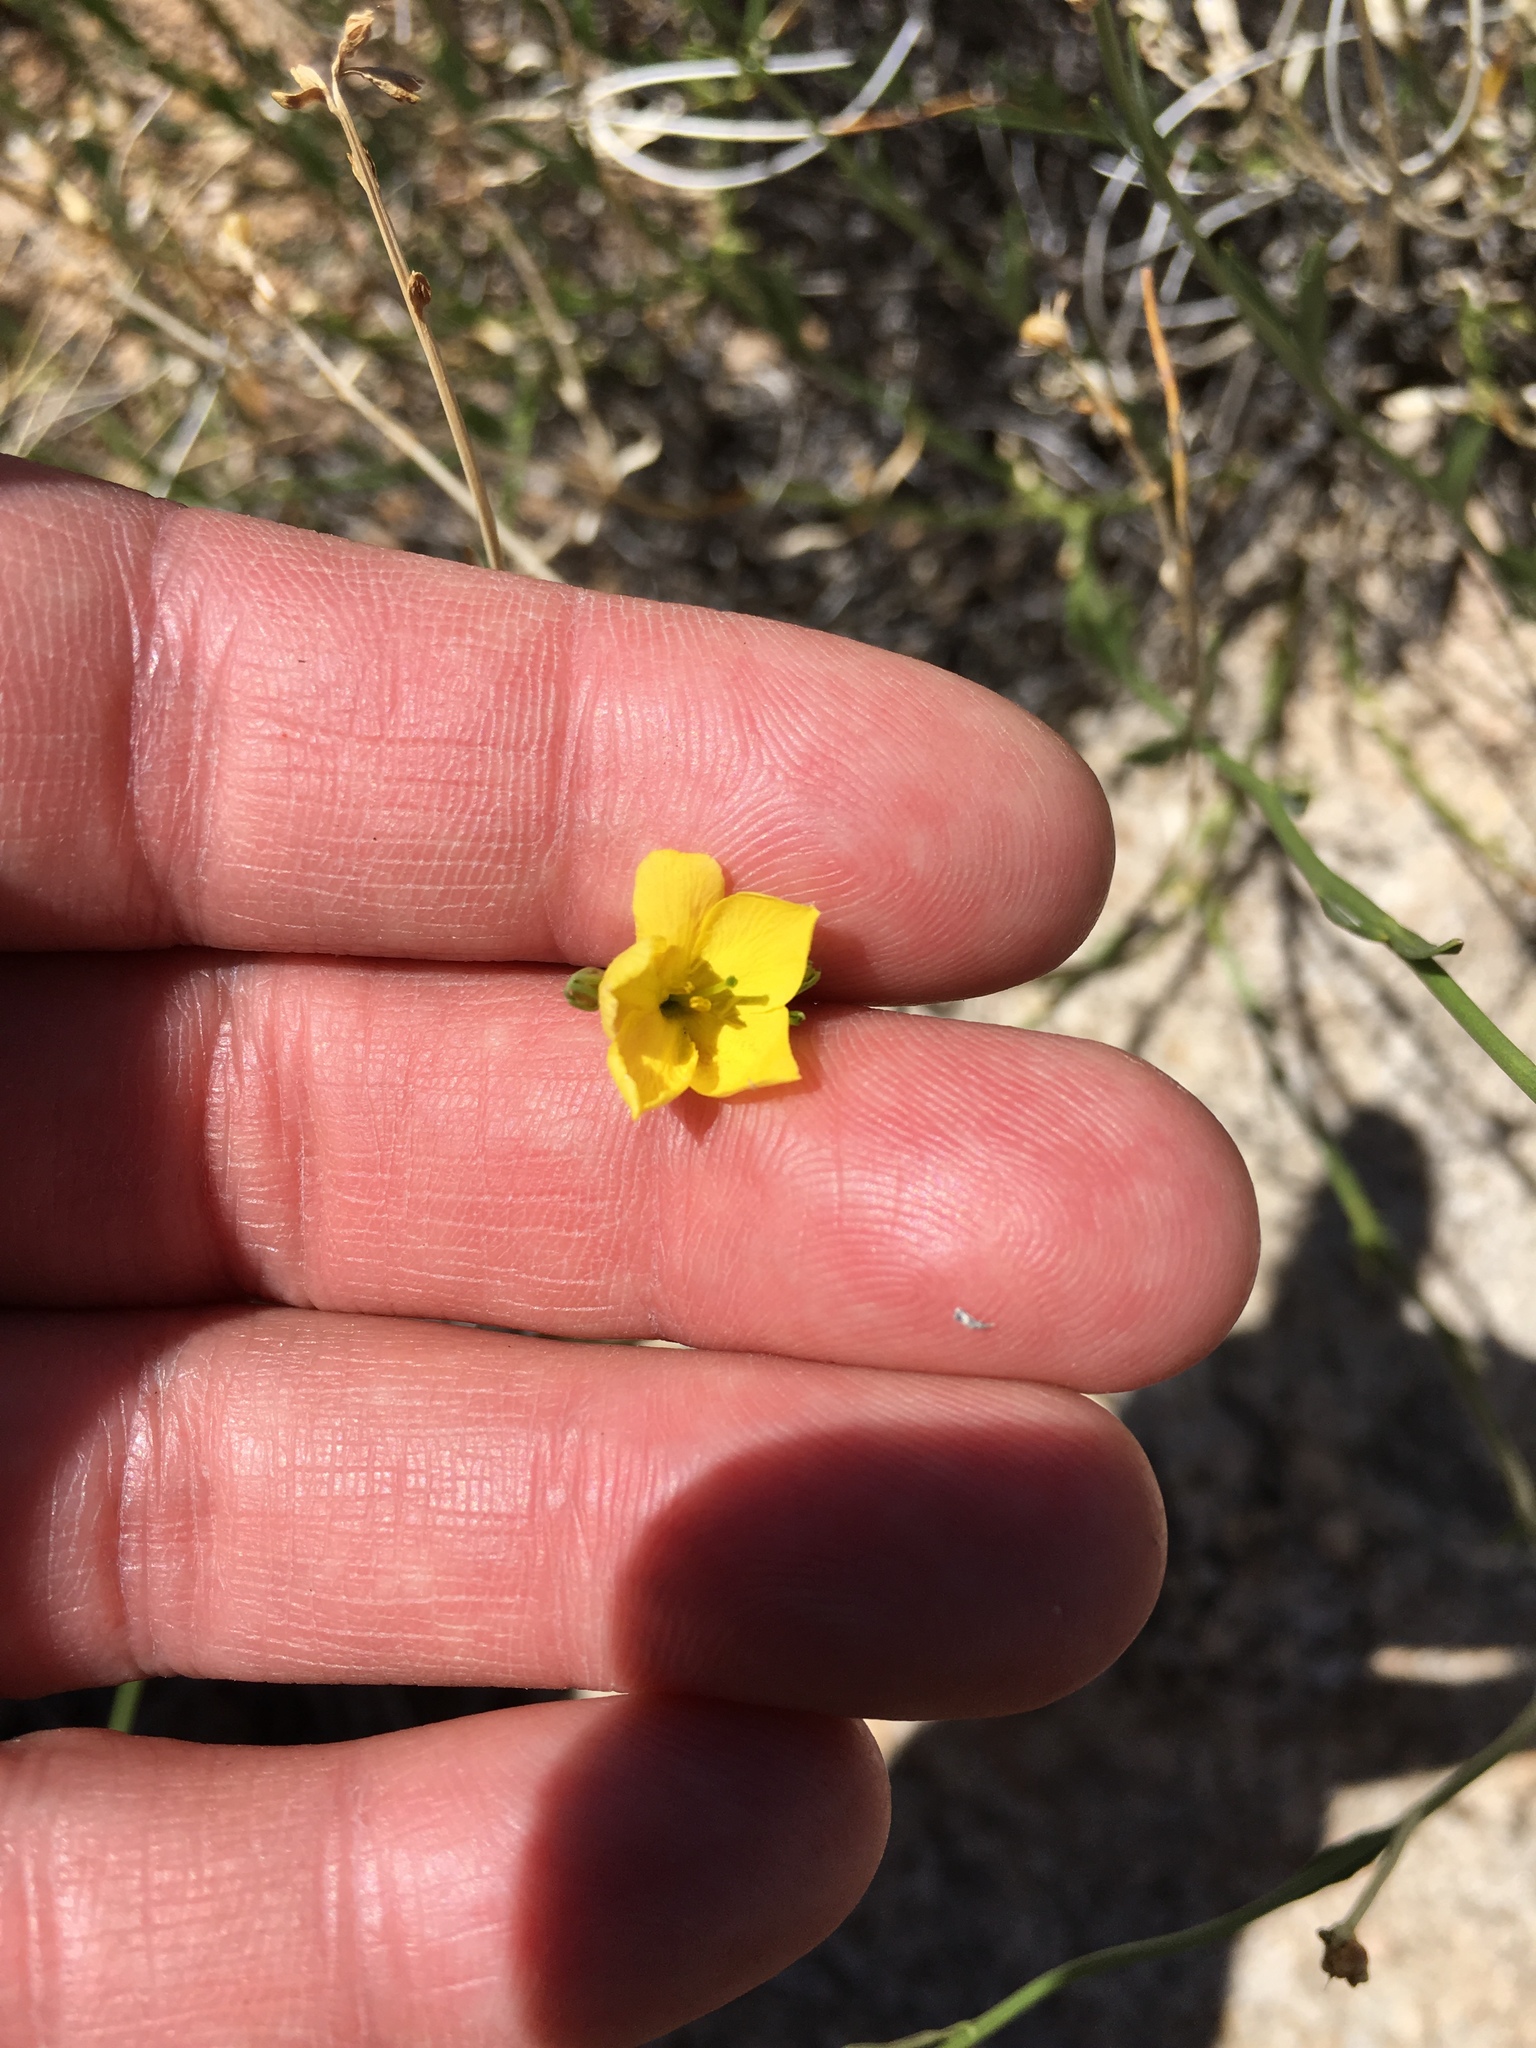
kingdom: Plantae
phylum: Tracheophyta
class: Magnoliopsida
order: Lamiales
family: Oleaceae
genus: Menodora
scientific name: Menodora scabra
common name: Rough menodora
